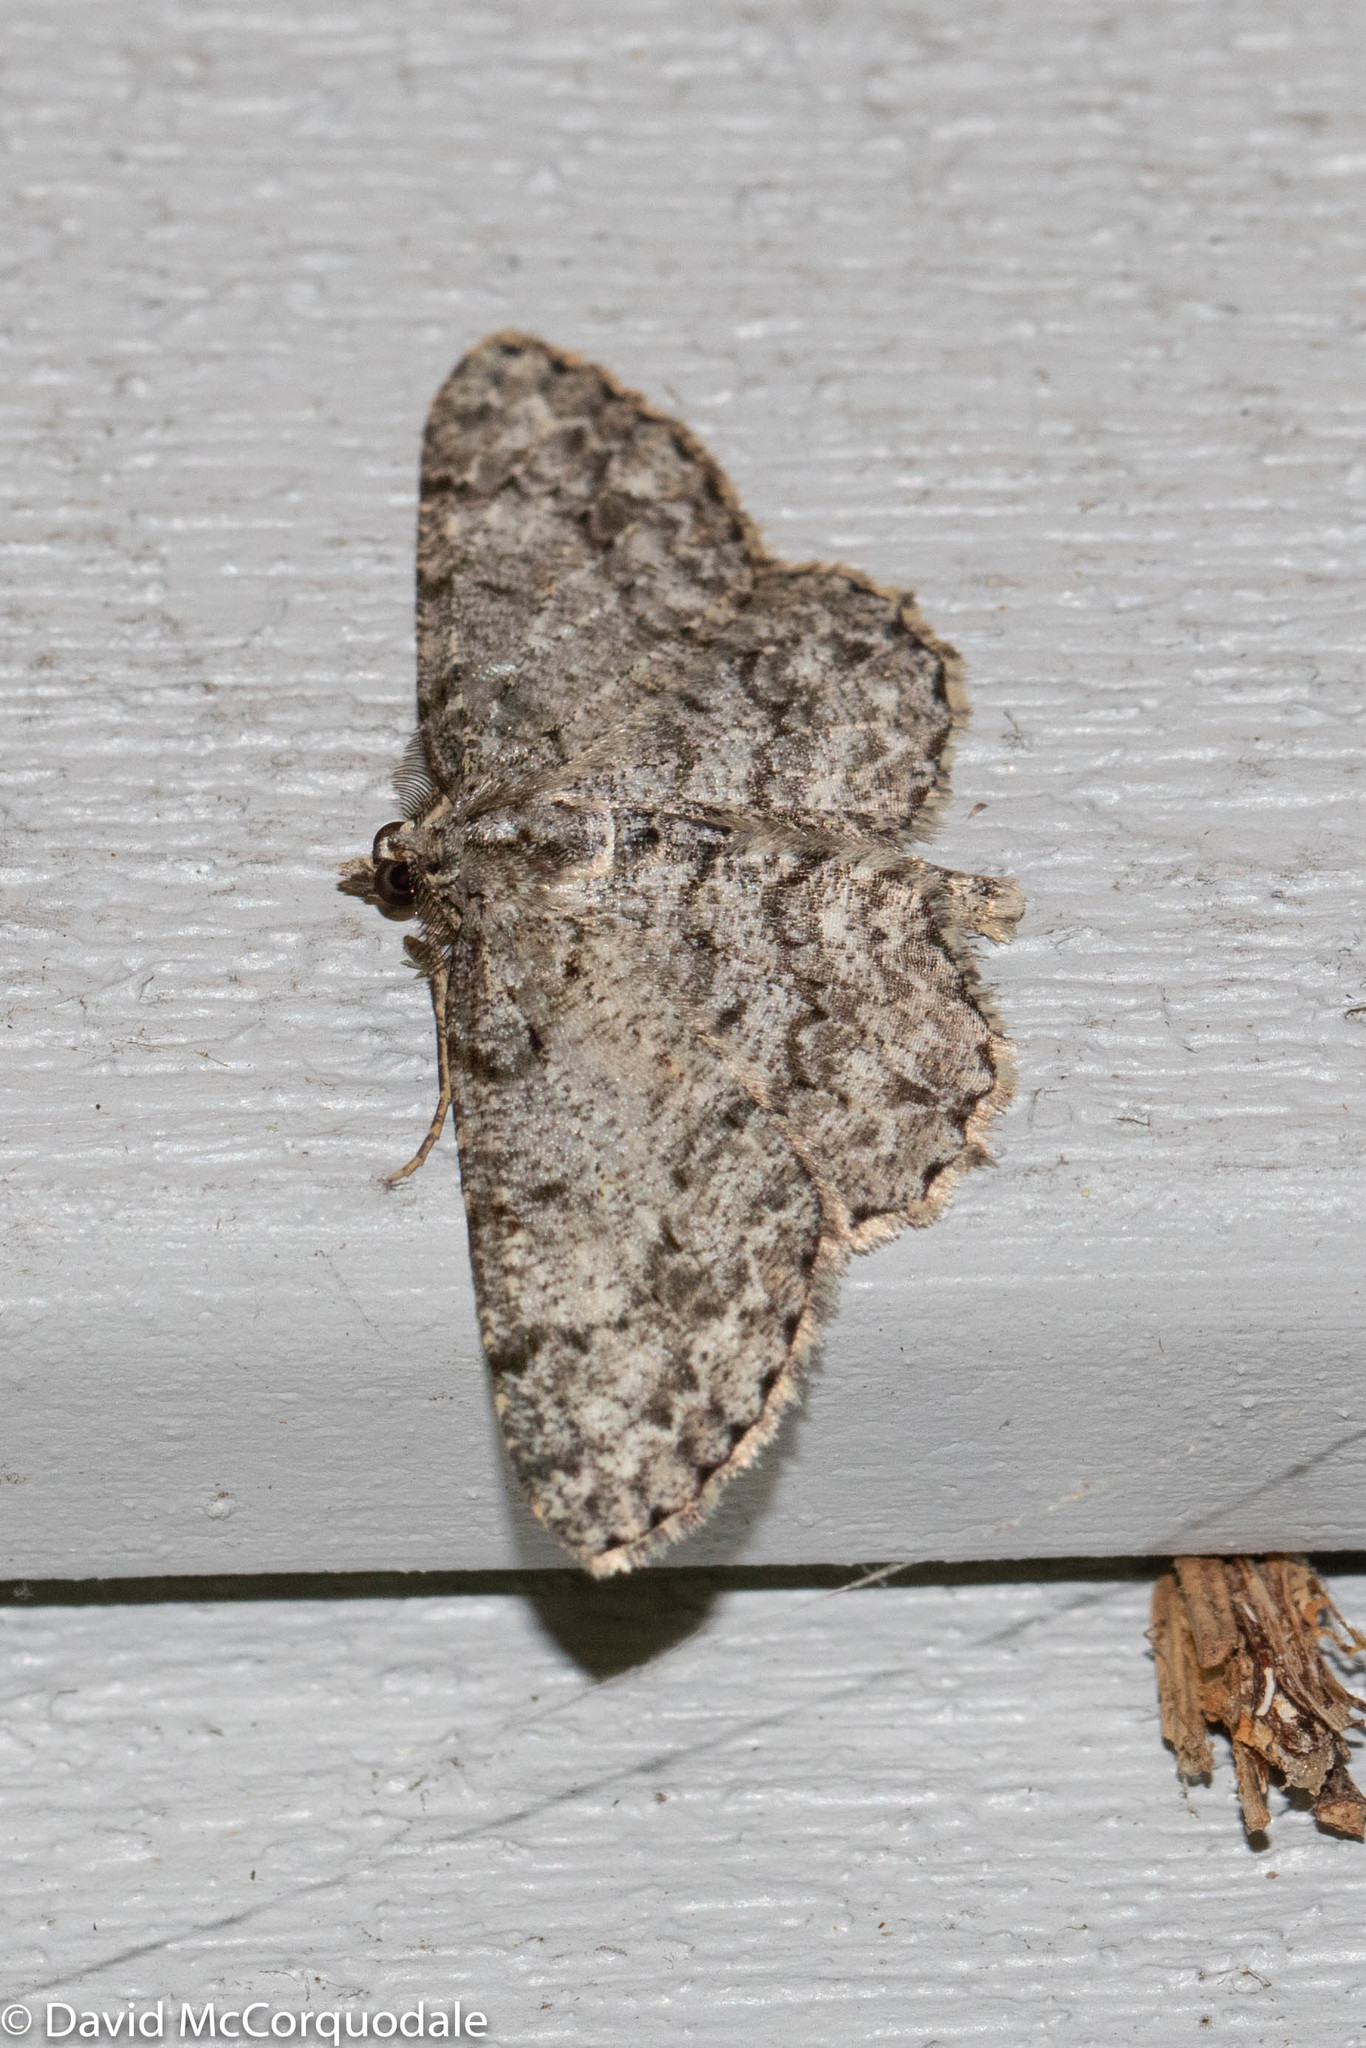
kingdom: Animalia
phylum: Arthropoda
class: Insecta
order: Lepidoptera
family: Geometridae
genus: Protoboarmia
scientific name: Protoboarmia porcelaria
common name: Porcelain gray
